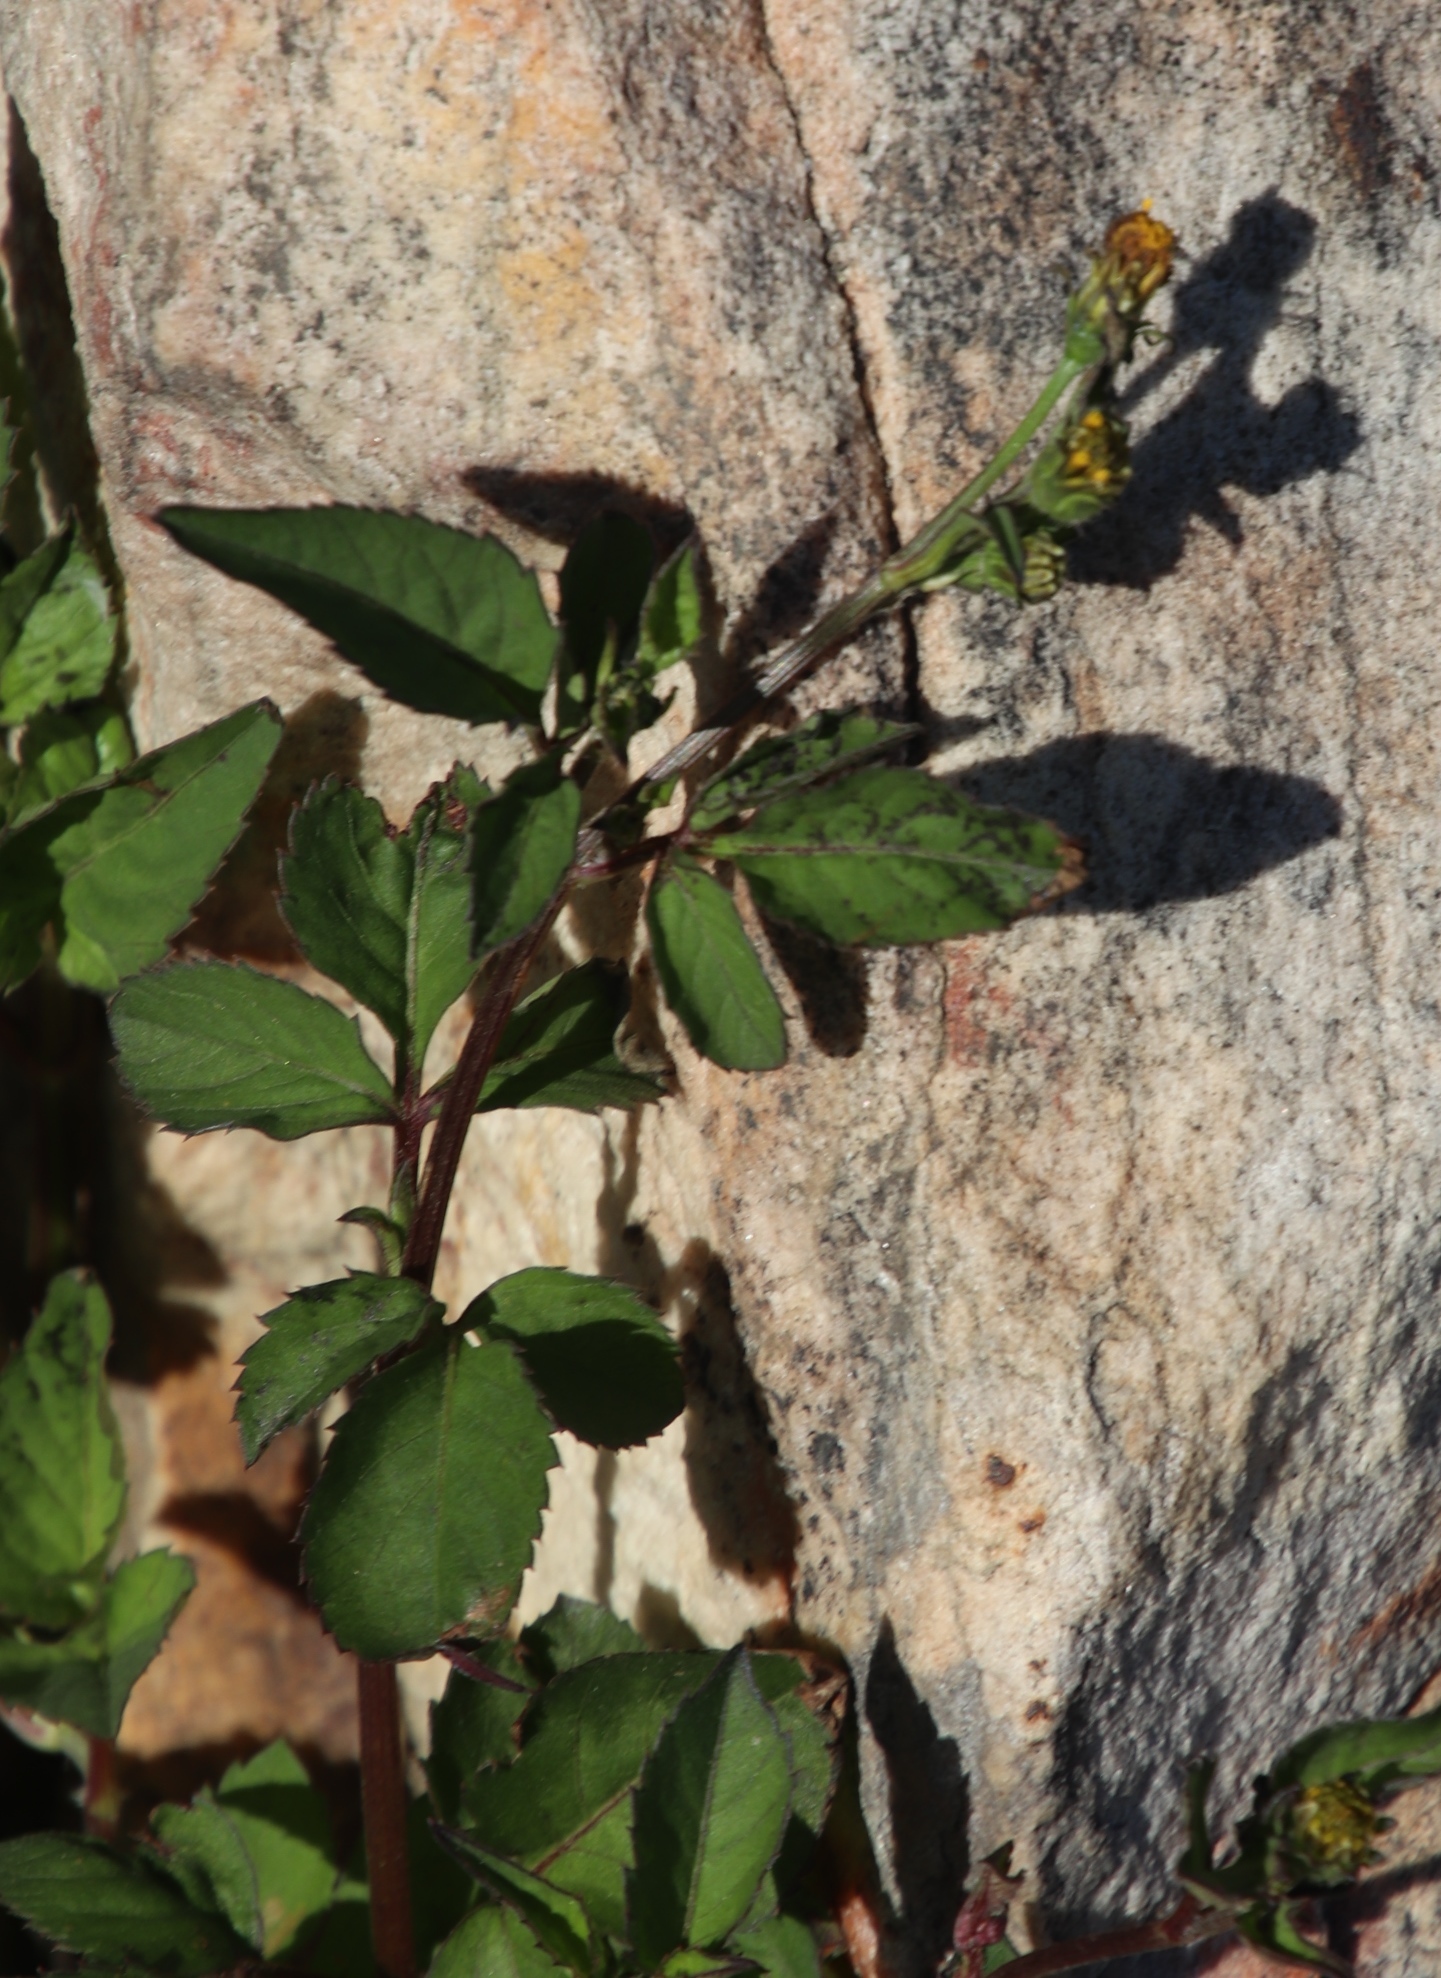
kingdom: Plantae
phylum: Tracheophyta
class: Magnoliopsida
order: Asterales
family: Asteraceae
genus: Bidens
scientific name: Bidens pilosa
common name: Black-jack
